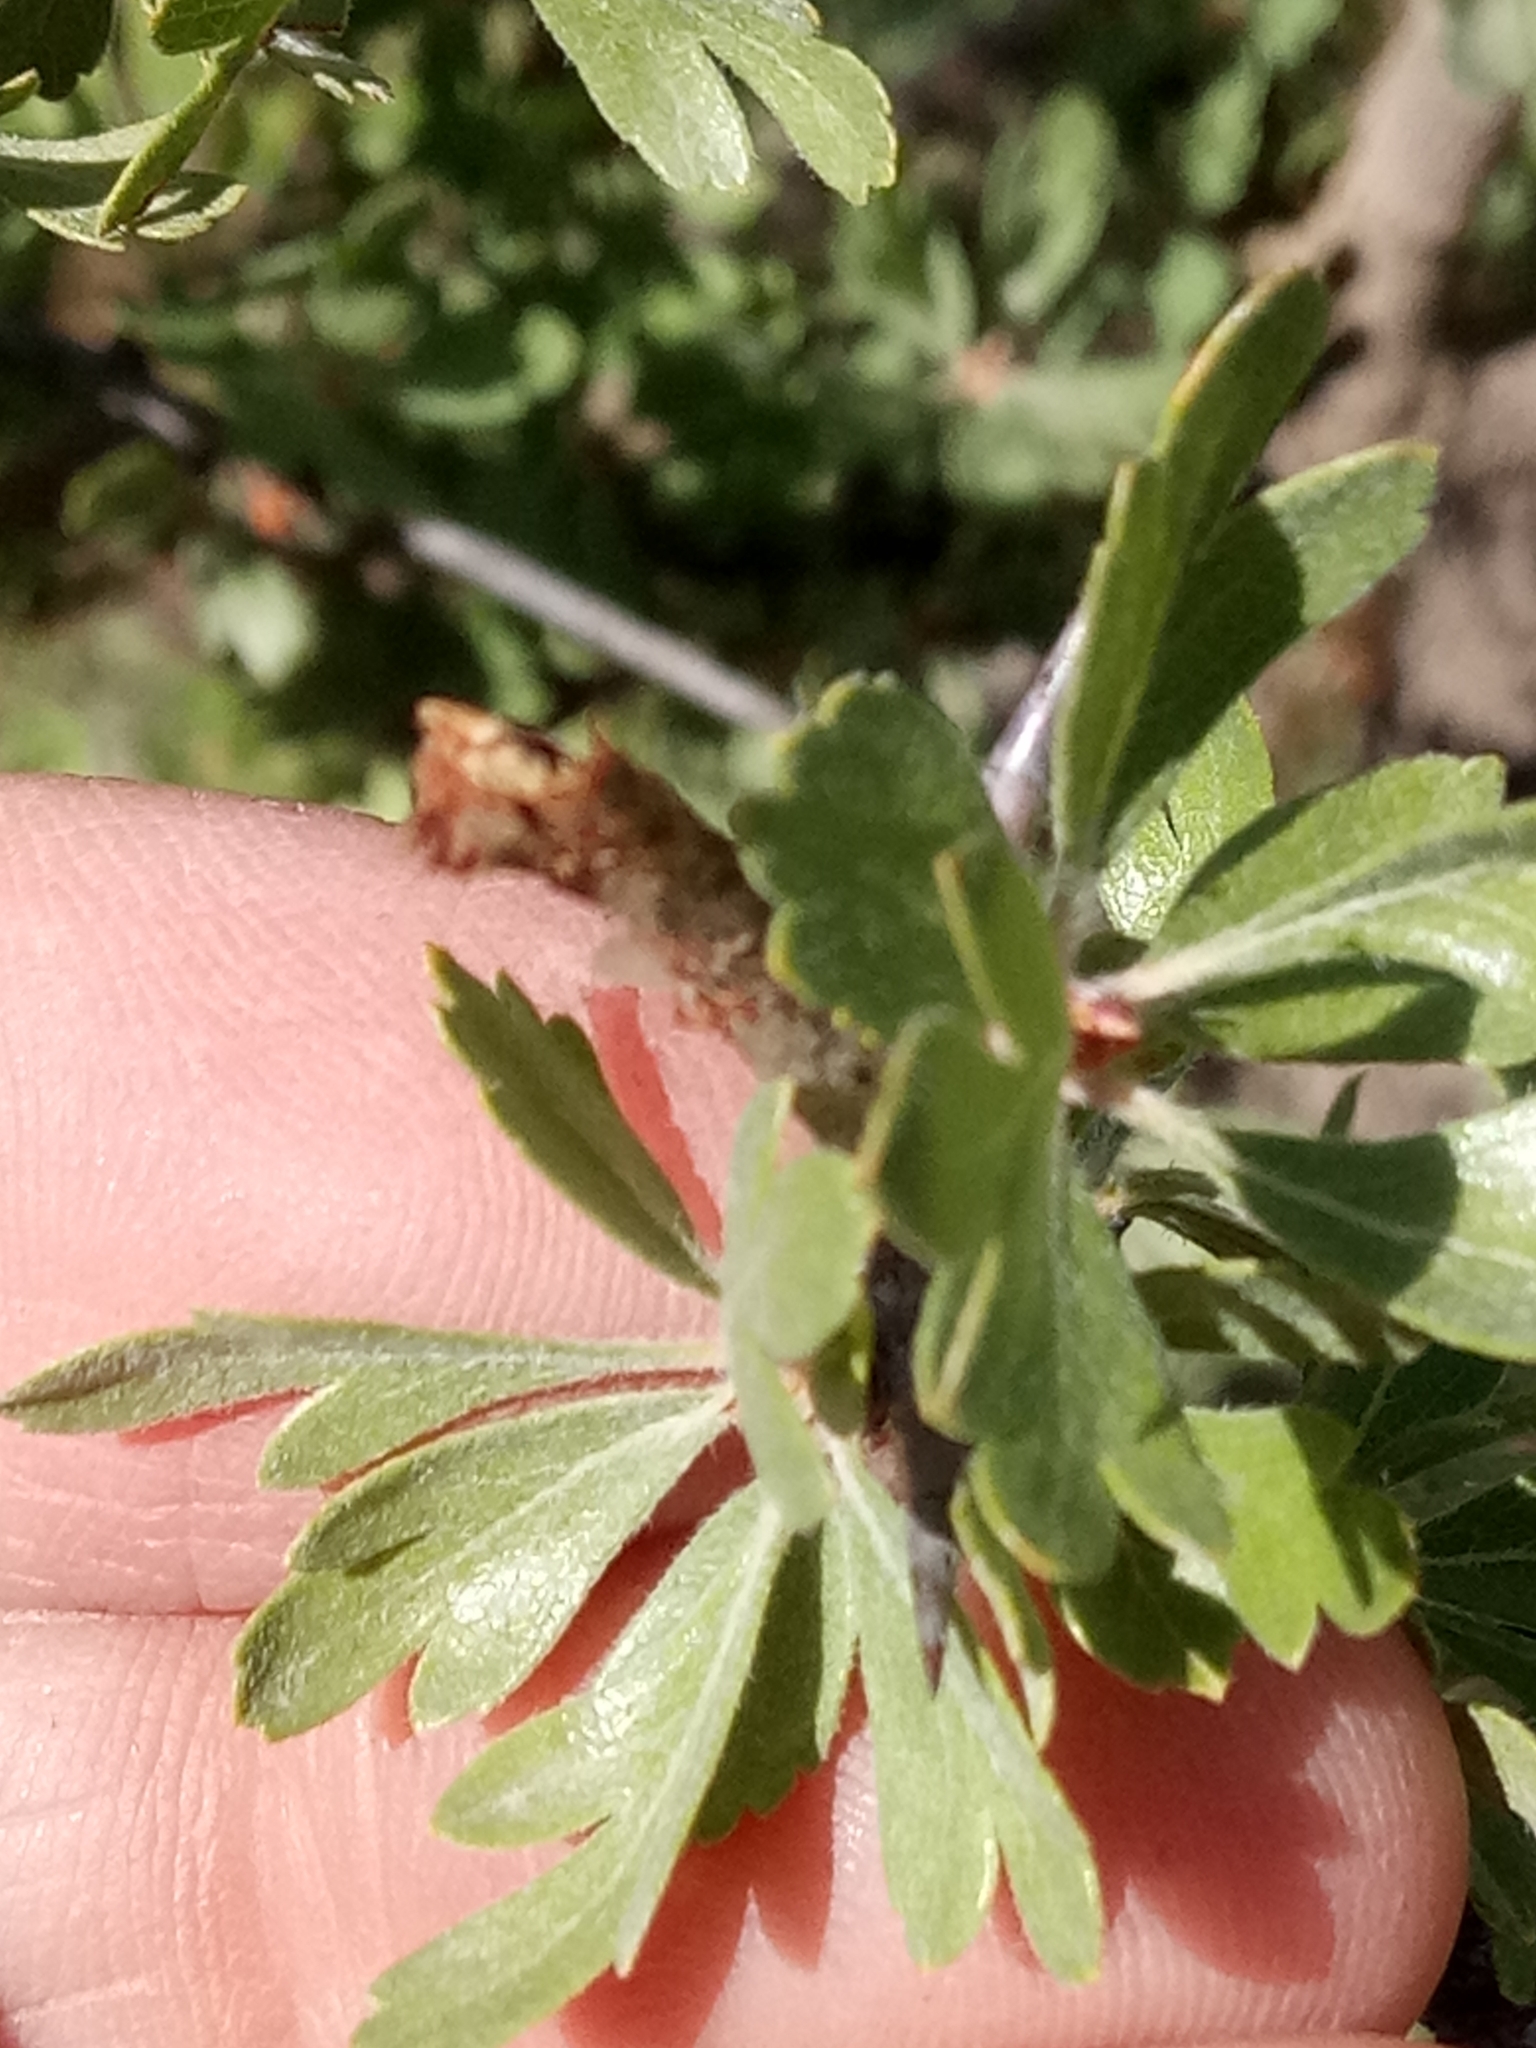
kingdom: Plantae
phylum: Tracheophyta
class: Magnoliopsida
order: Rosales
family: Rosaceae
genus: Crataegus
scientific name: Crataegus azarolus
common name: Azarole
